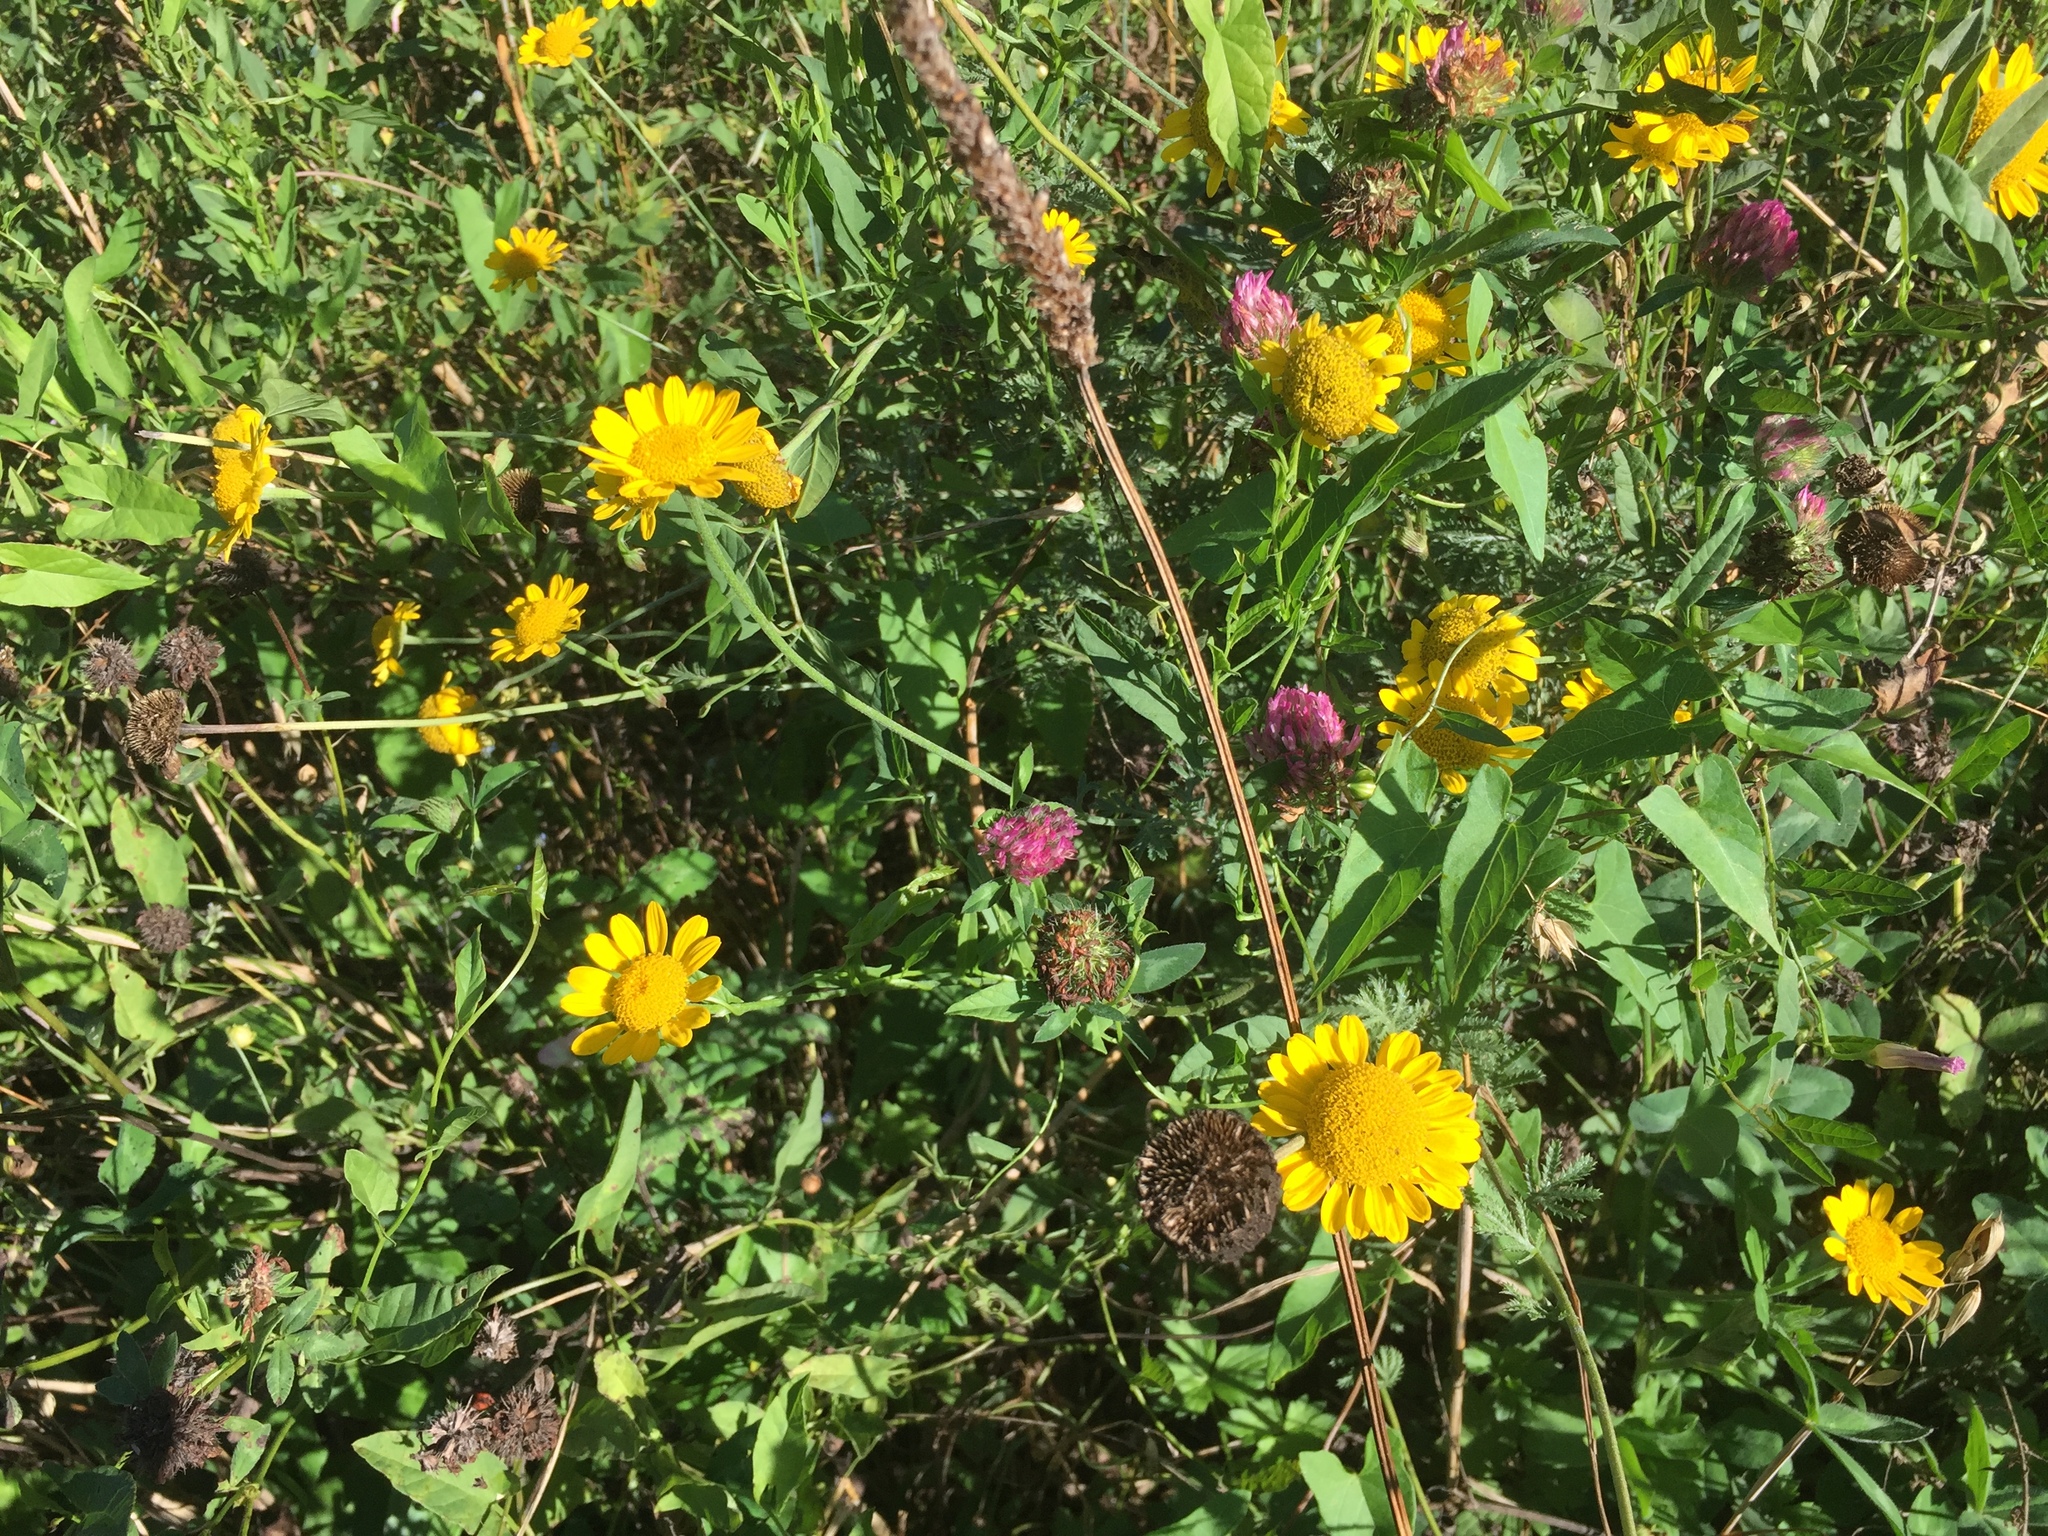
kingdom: Plantae
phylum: Tracheophyta
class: Magnoliopsida
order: Asterales
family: Asteraceae
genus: Cota
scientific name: Cota tinctoria
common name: Golden chamomile
